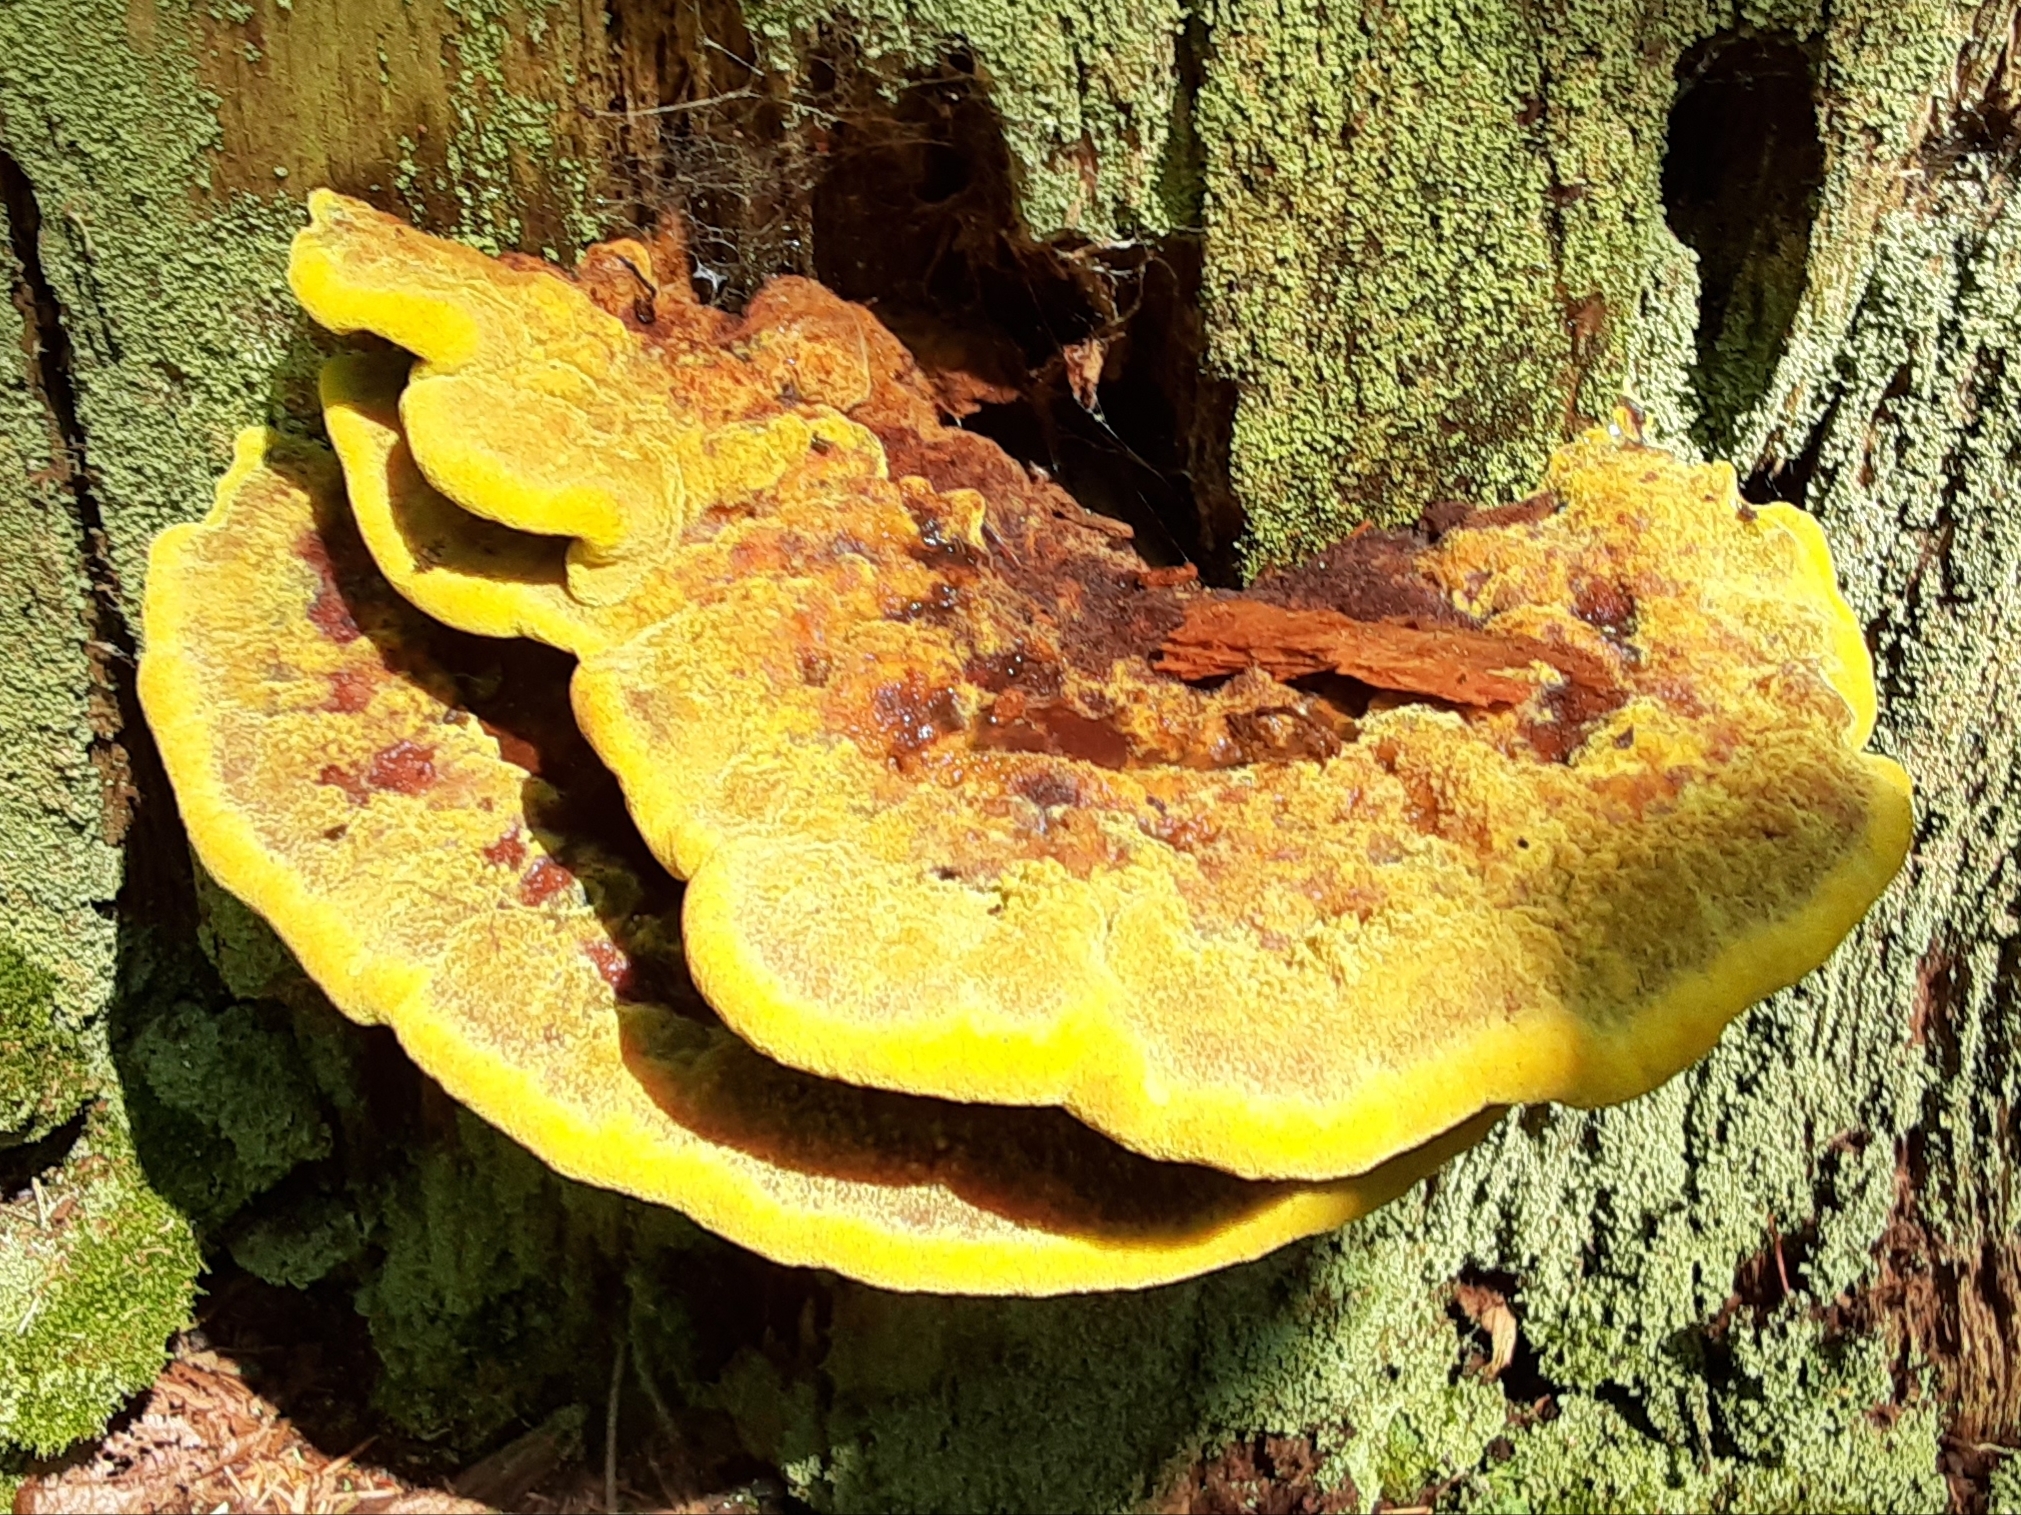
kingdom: Fungi
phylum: Basidiomycota
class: Agaricomycetes
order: Polyporales
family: Laetiporaceae
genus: Phaeolus
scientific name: Phaeolus schweinitzii
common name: Dyer's mazegill
